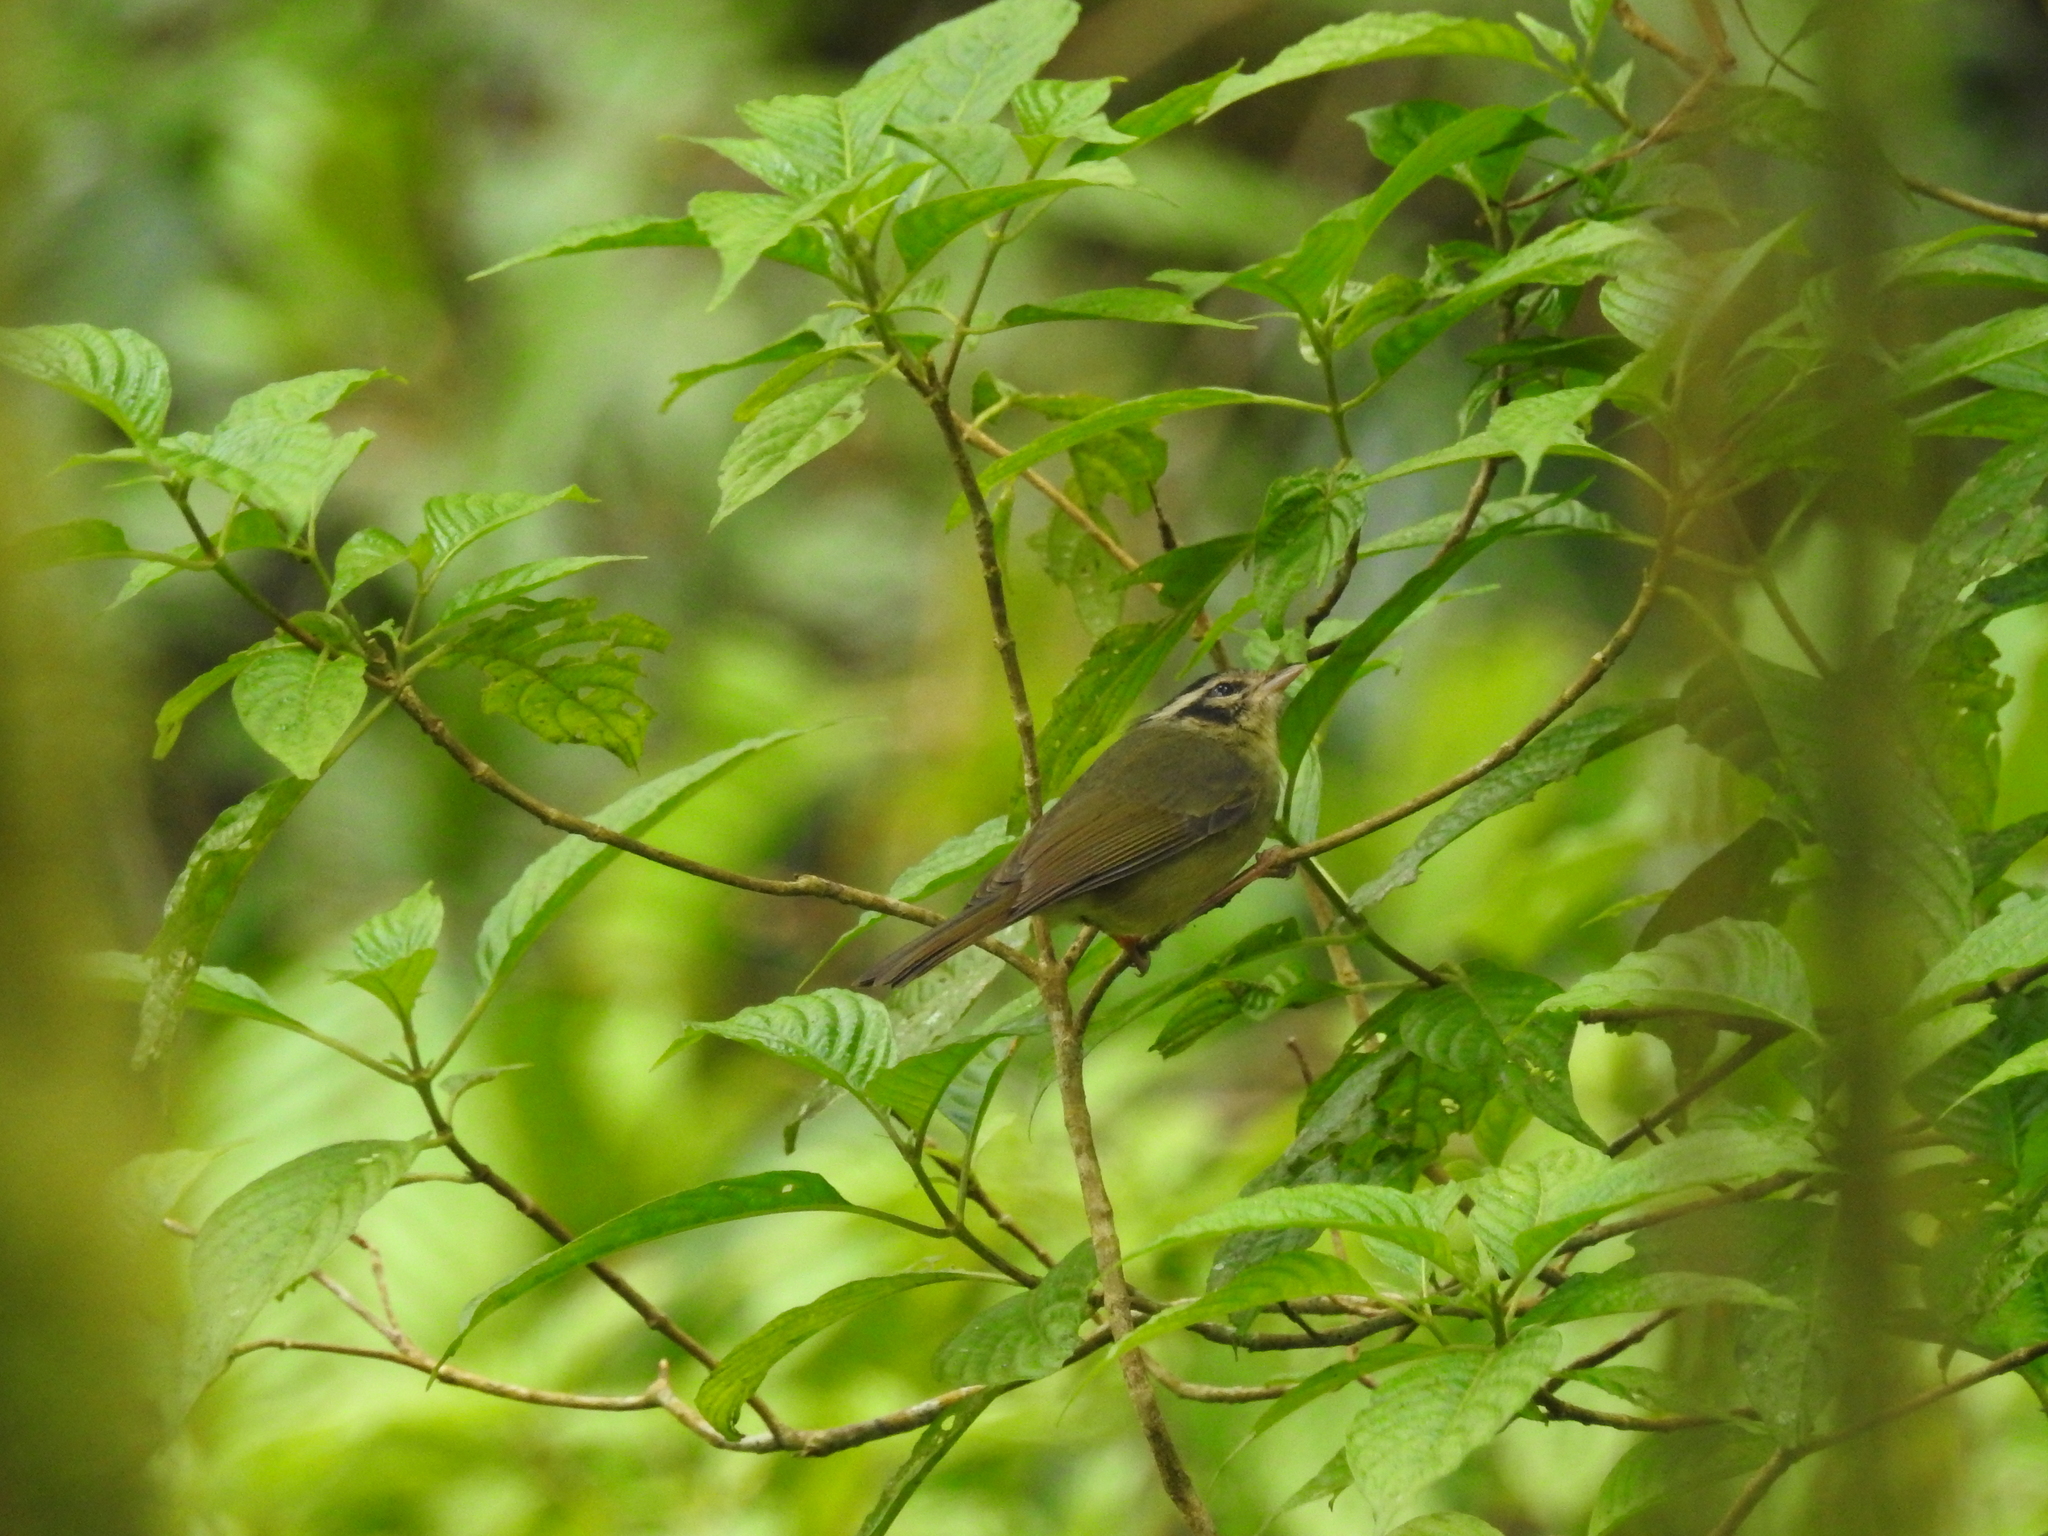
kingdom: Animalia
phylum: Chordata
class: Aves
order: Passeriformes
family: Parulidae
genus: Basileuterus
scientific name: Basileuterus melanotis
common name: Black-eared warbler
